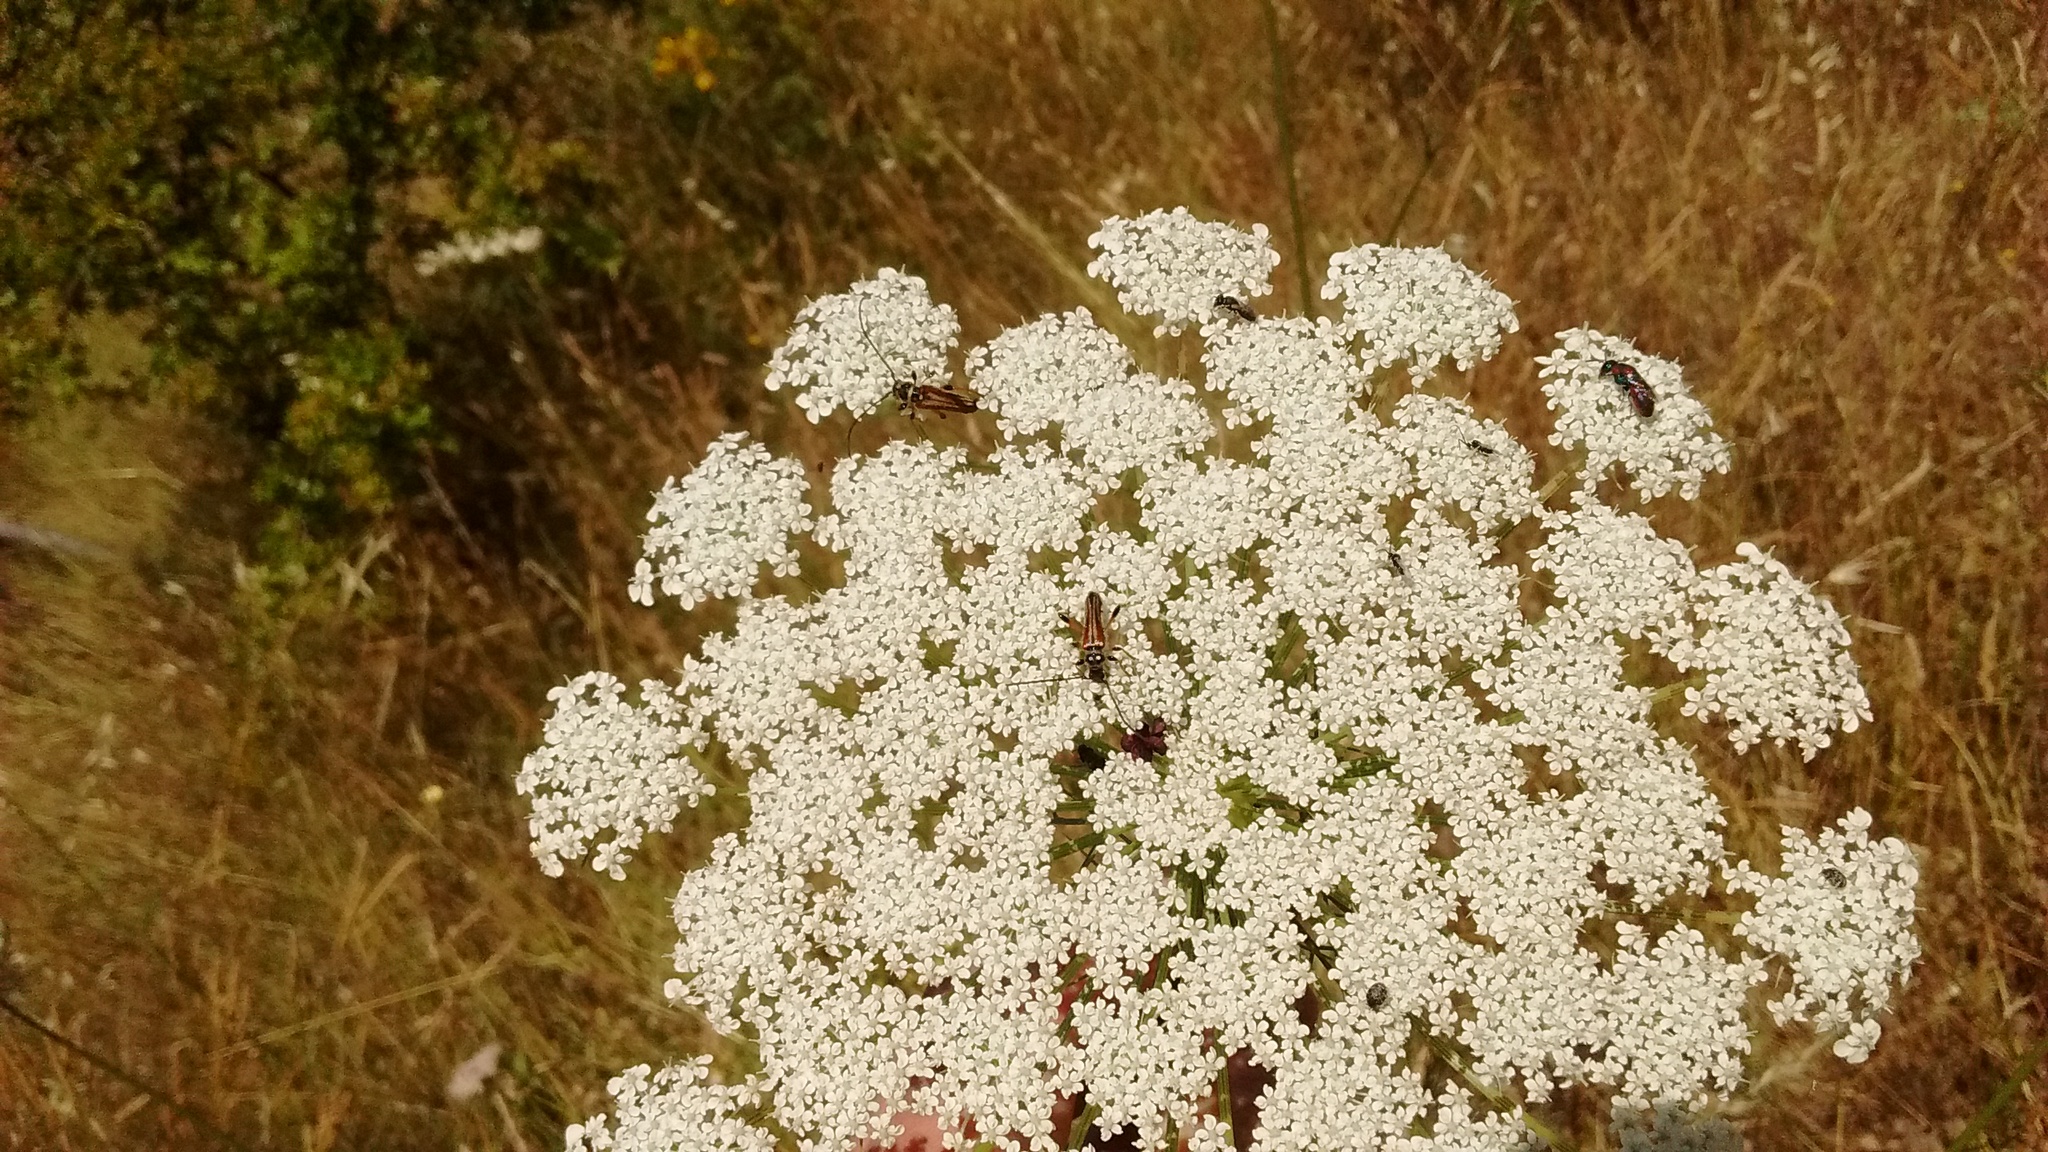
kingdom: Plantae
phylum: Tracheophyta
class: Magnoliopsida
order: Apiales
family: Apiaceae
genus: Daucus
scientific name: Daucus carota
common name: Wild carrot
